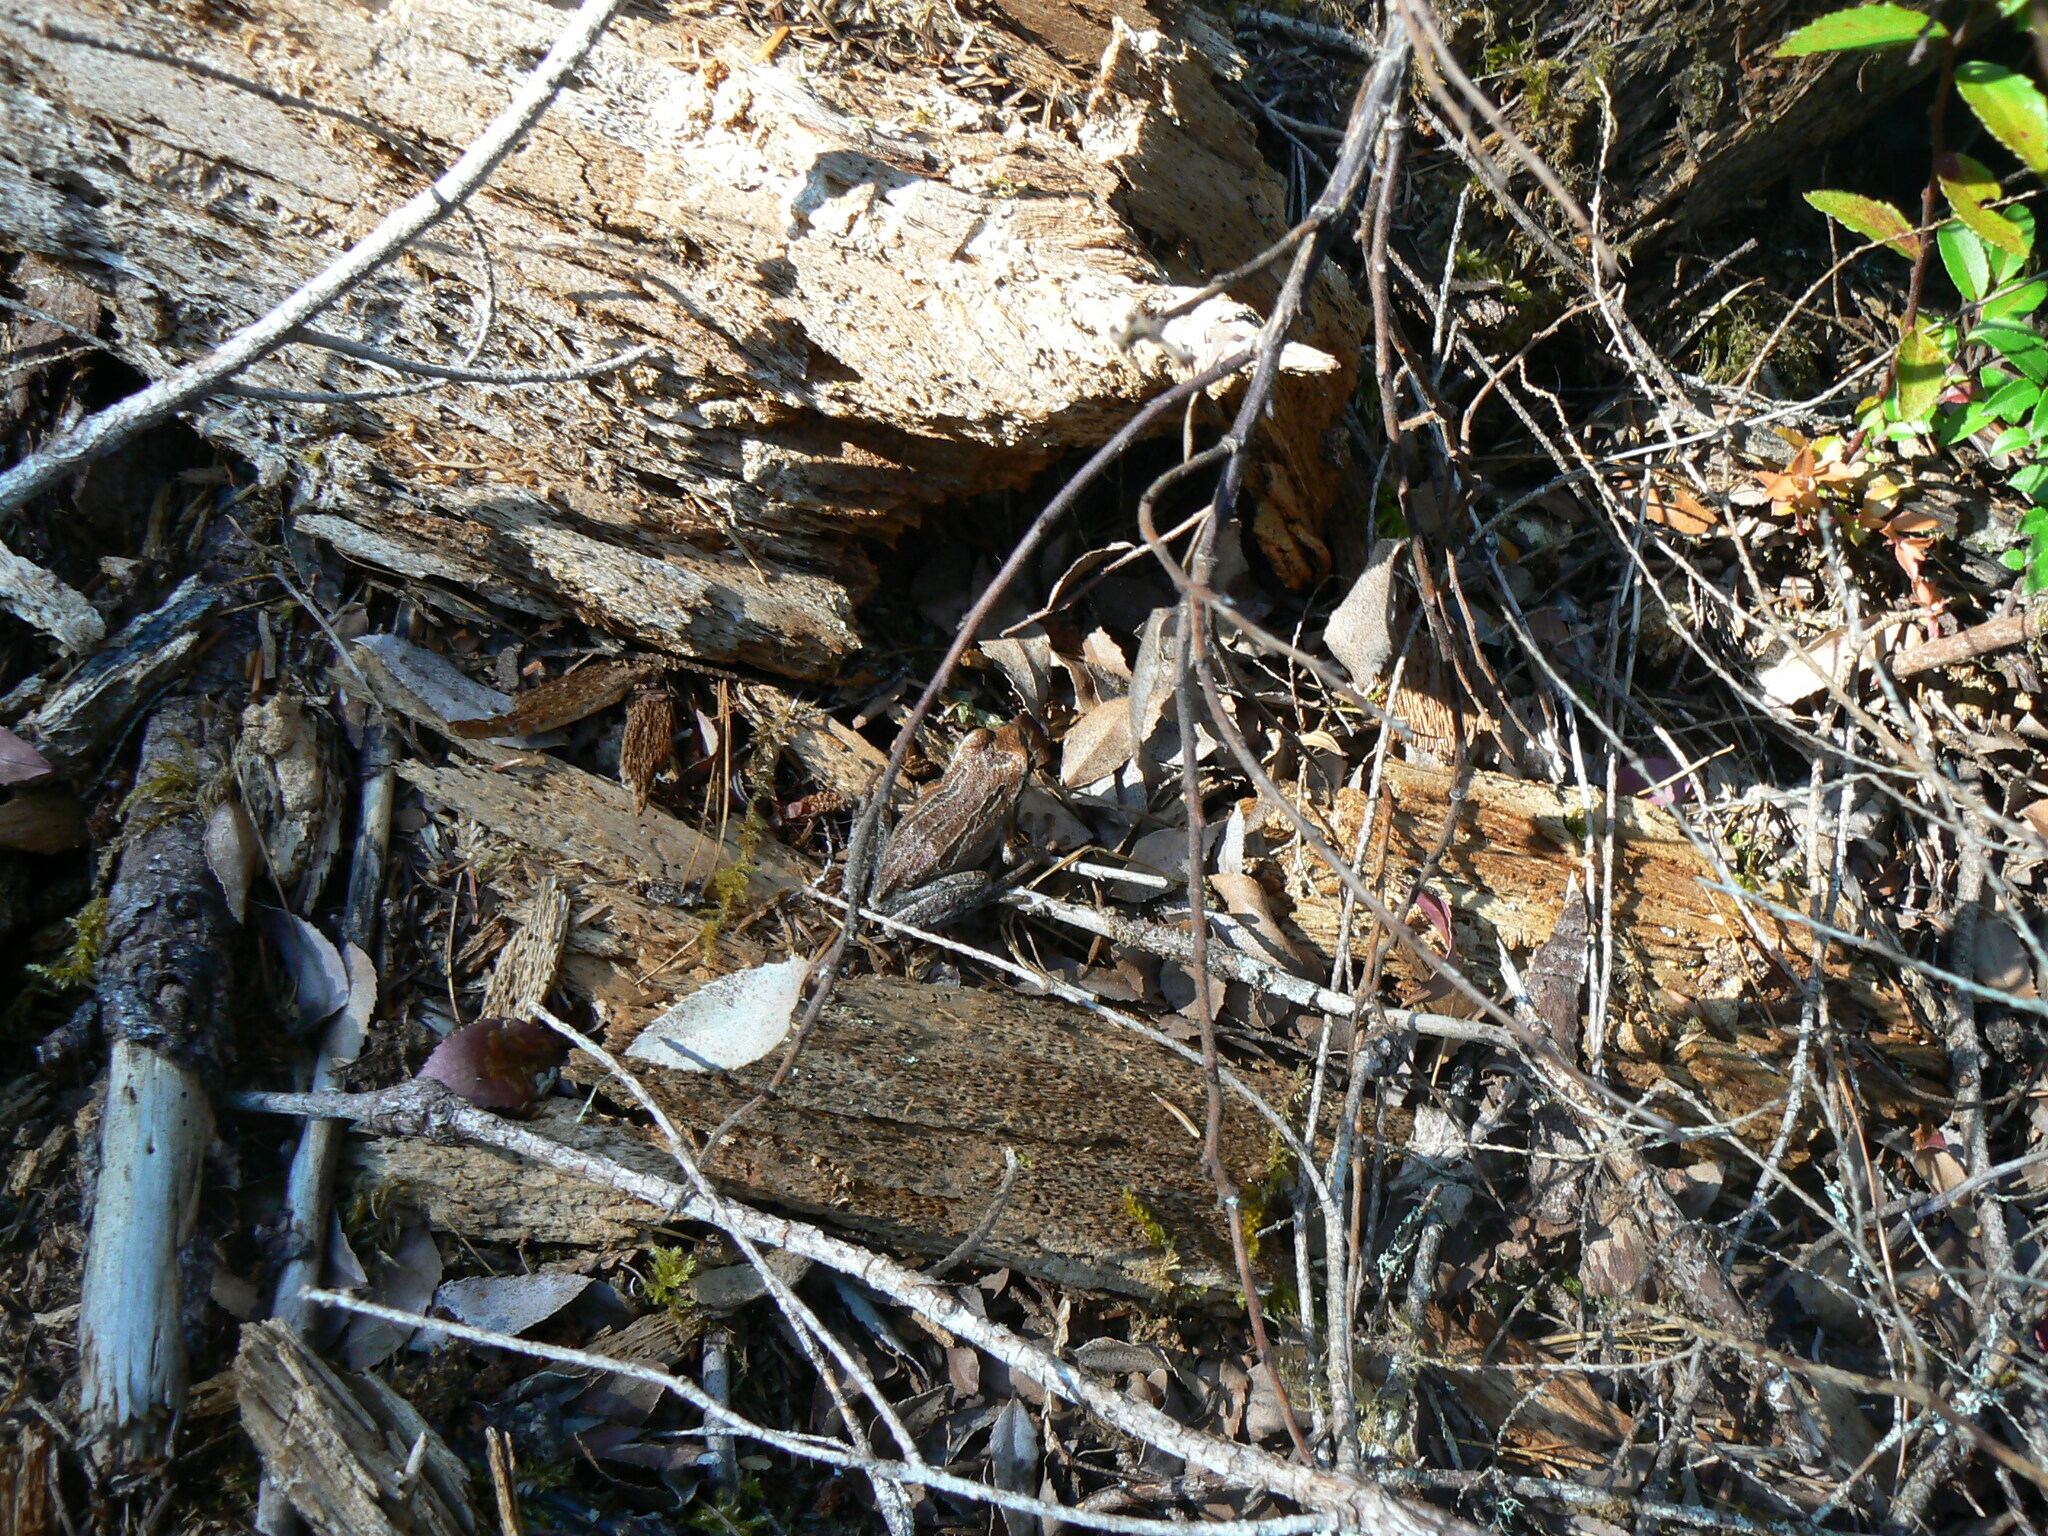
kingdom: Animalia
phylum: Chordata
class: Amphibia
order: Anura
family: Hylidae
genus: Pseudacris
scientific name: Pseudacris regilla
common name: Pacific chorus frog
